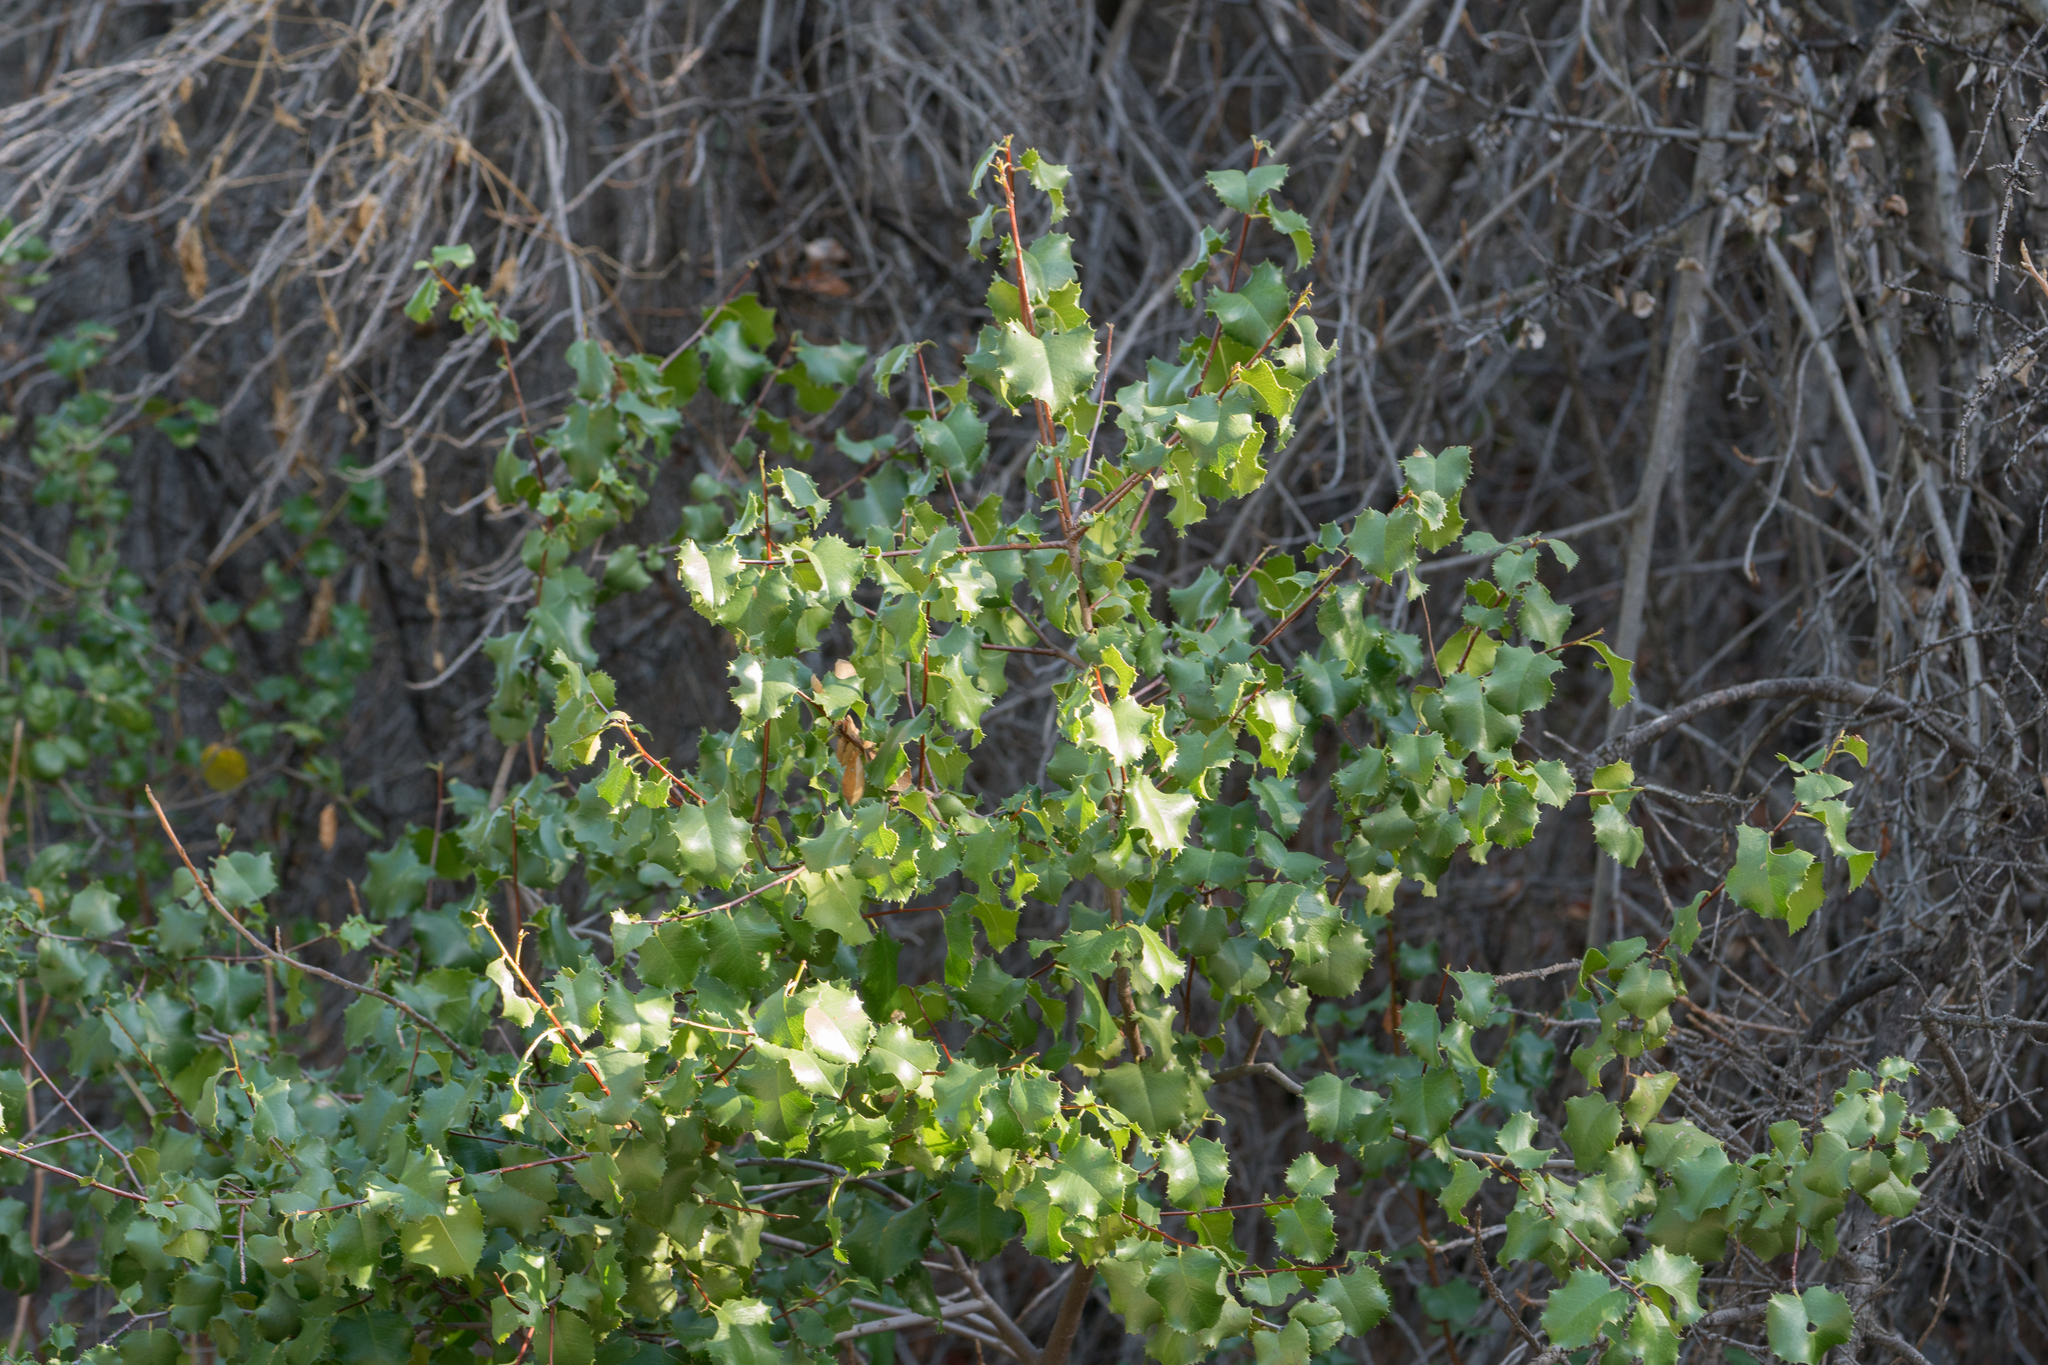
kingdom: Plantae
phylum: Tracheophyta
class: Magnoliopsida
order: Rosales
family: Rosaceae
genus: Prunus
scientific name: Prunus ilicifolia
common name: Hollyleaf cherry
